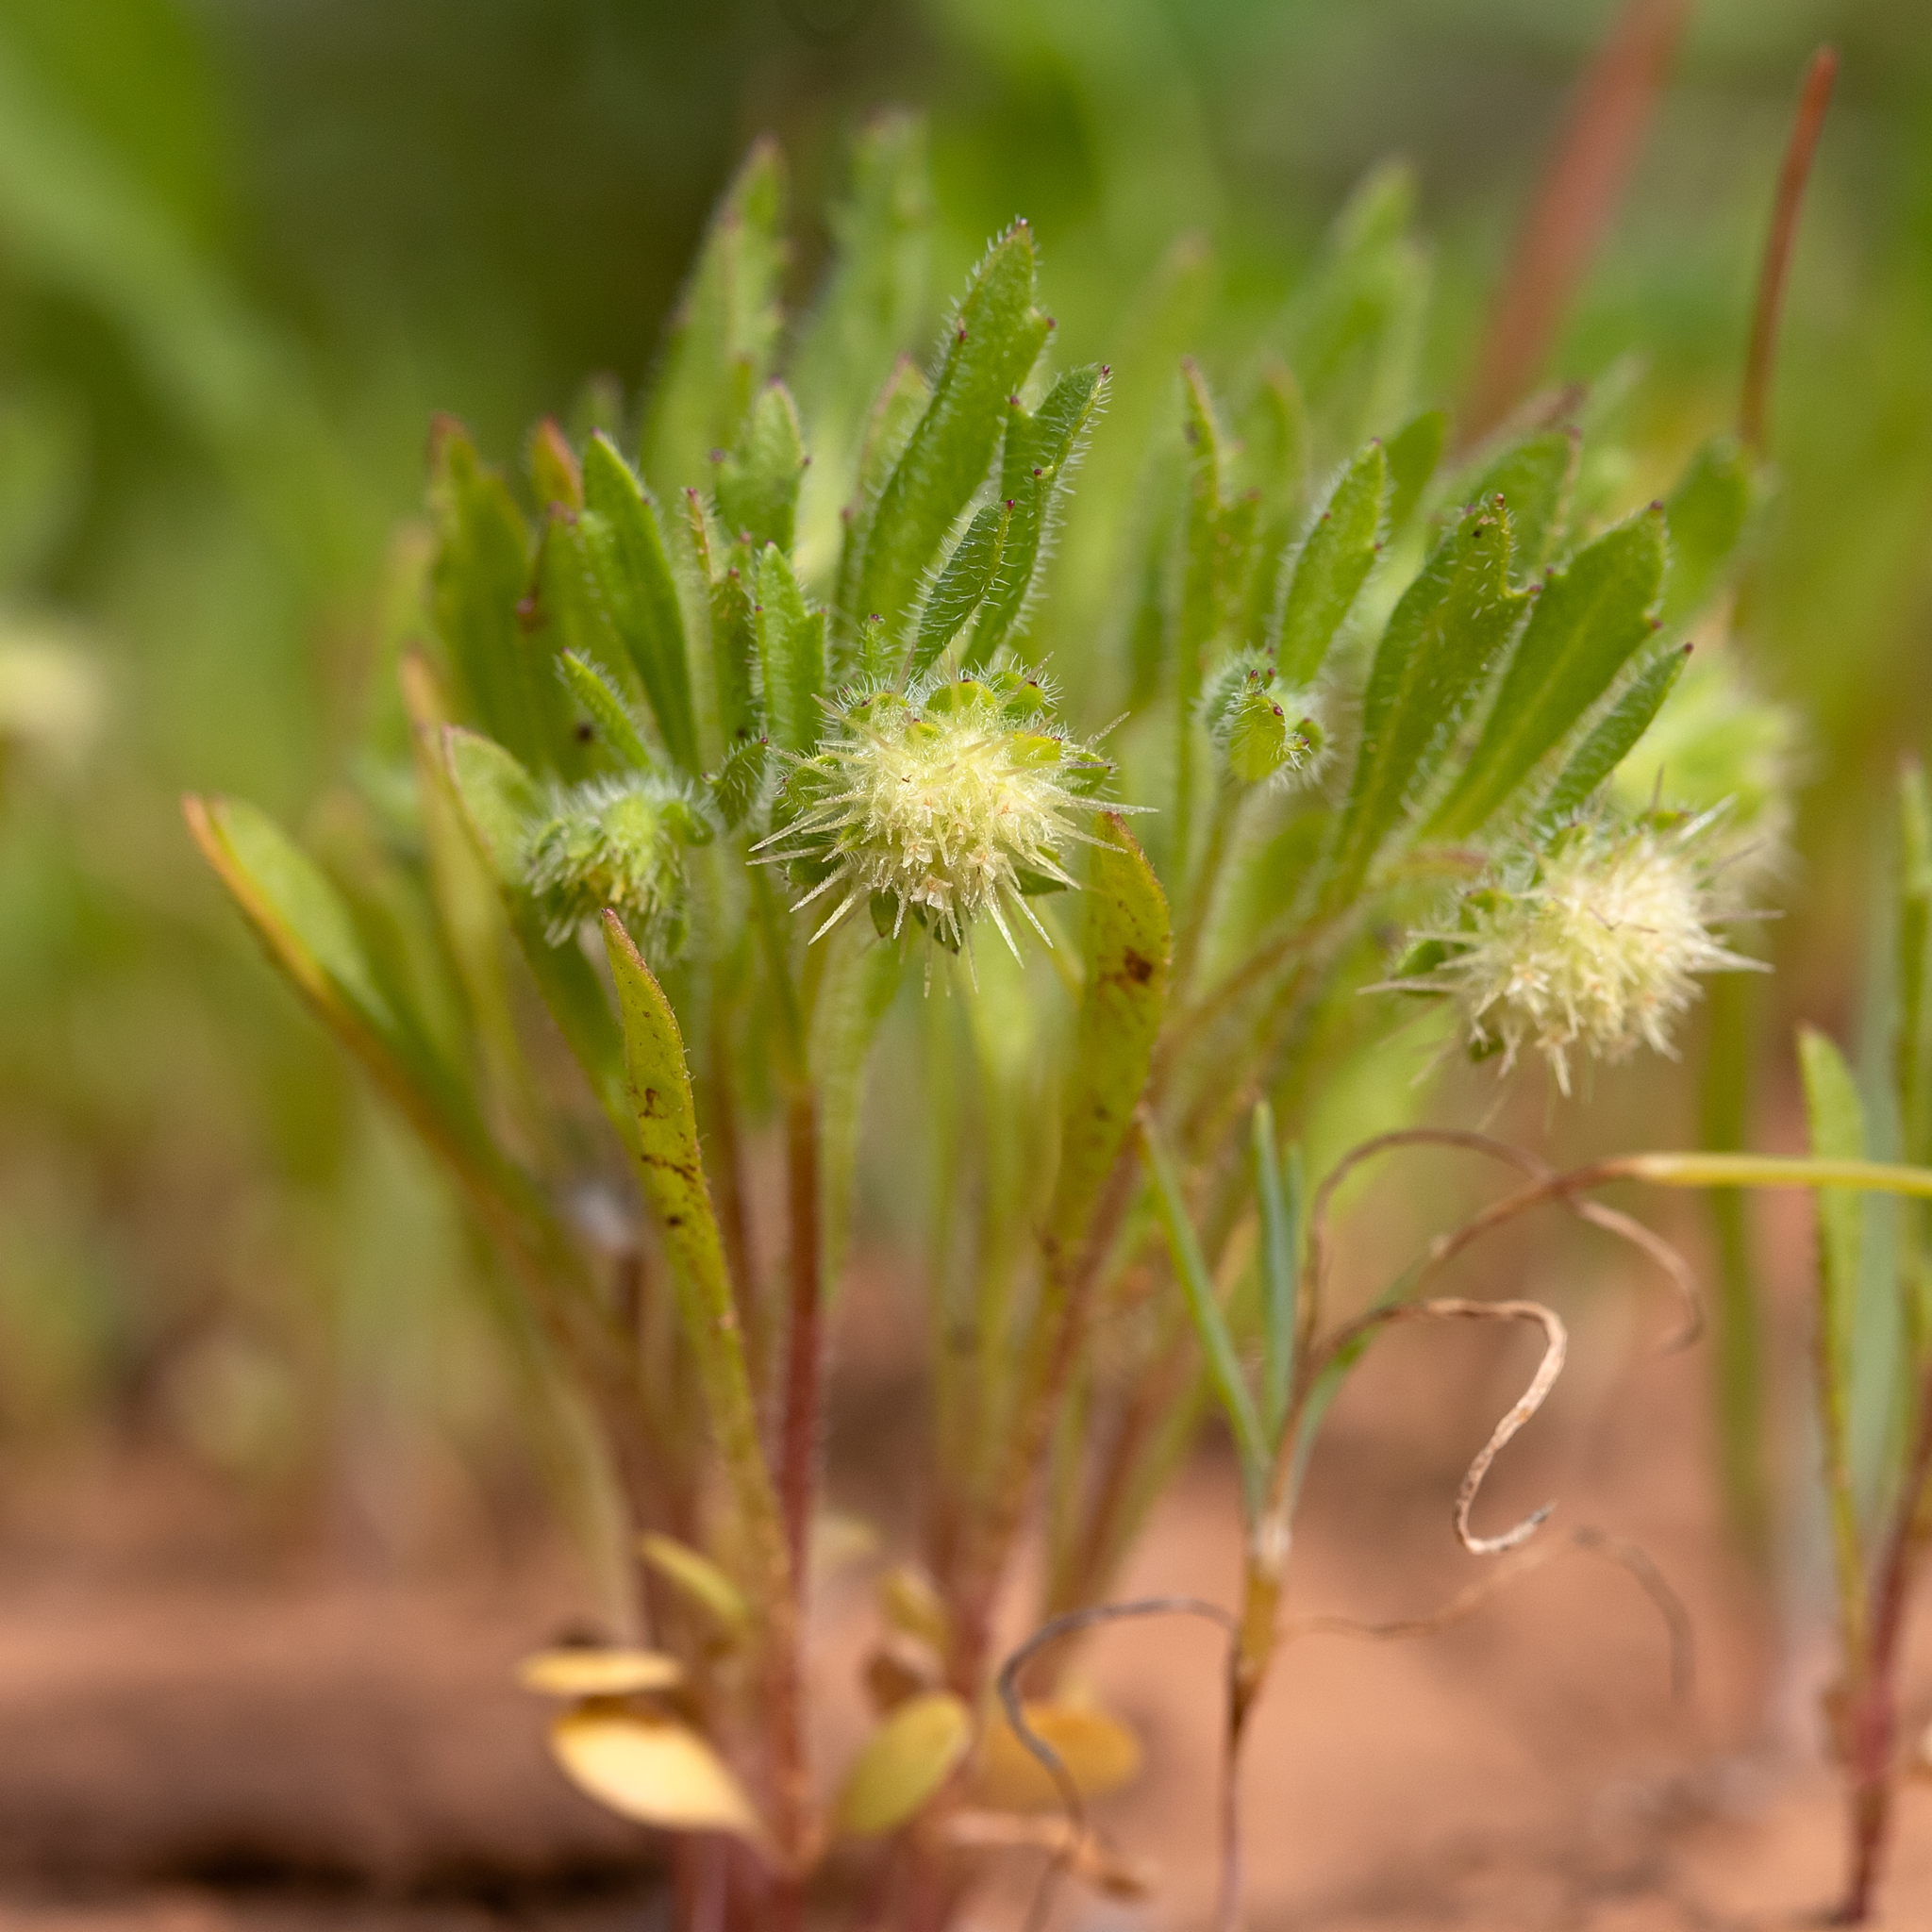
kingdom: Plantae
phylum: Tracheophyta
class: Magnoliopsida
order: Asterales
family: Asteraceae
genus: Calotis
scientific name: Calotis hispidula
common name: Bogan-flea
